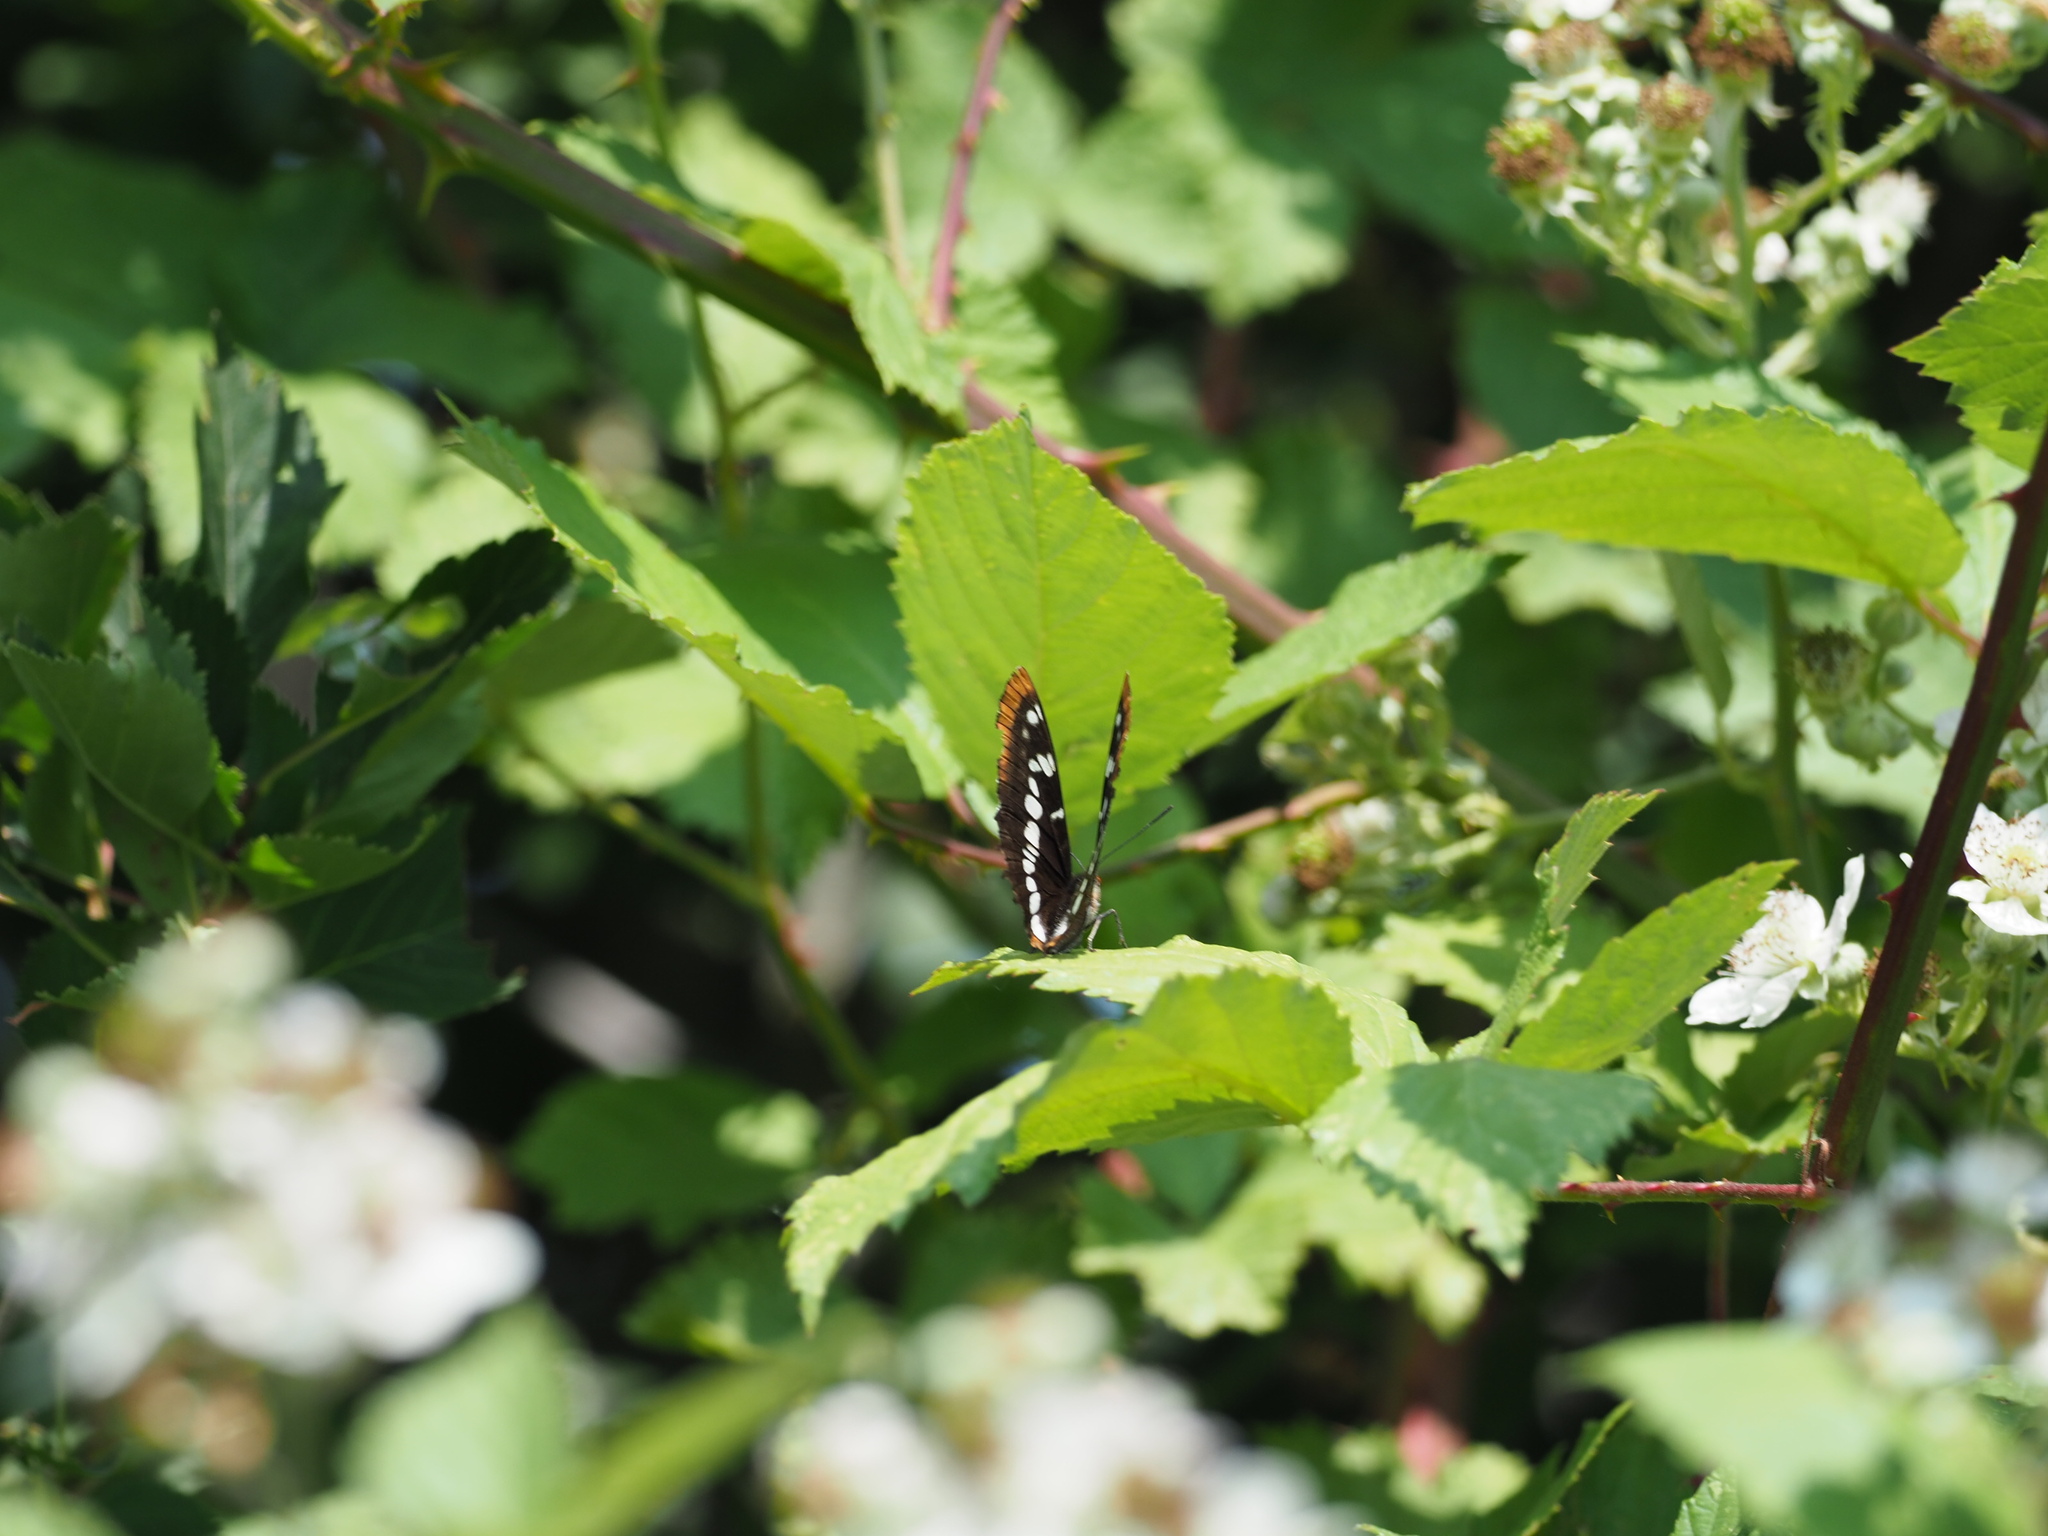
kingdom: Animalia
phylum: Arthropoda
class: Insecta
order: Lepidoptera
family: Nymphalidae
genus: Limenitis
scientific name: Limenitis lorquini
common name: Lorquin's admiral
